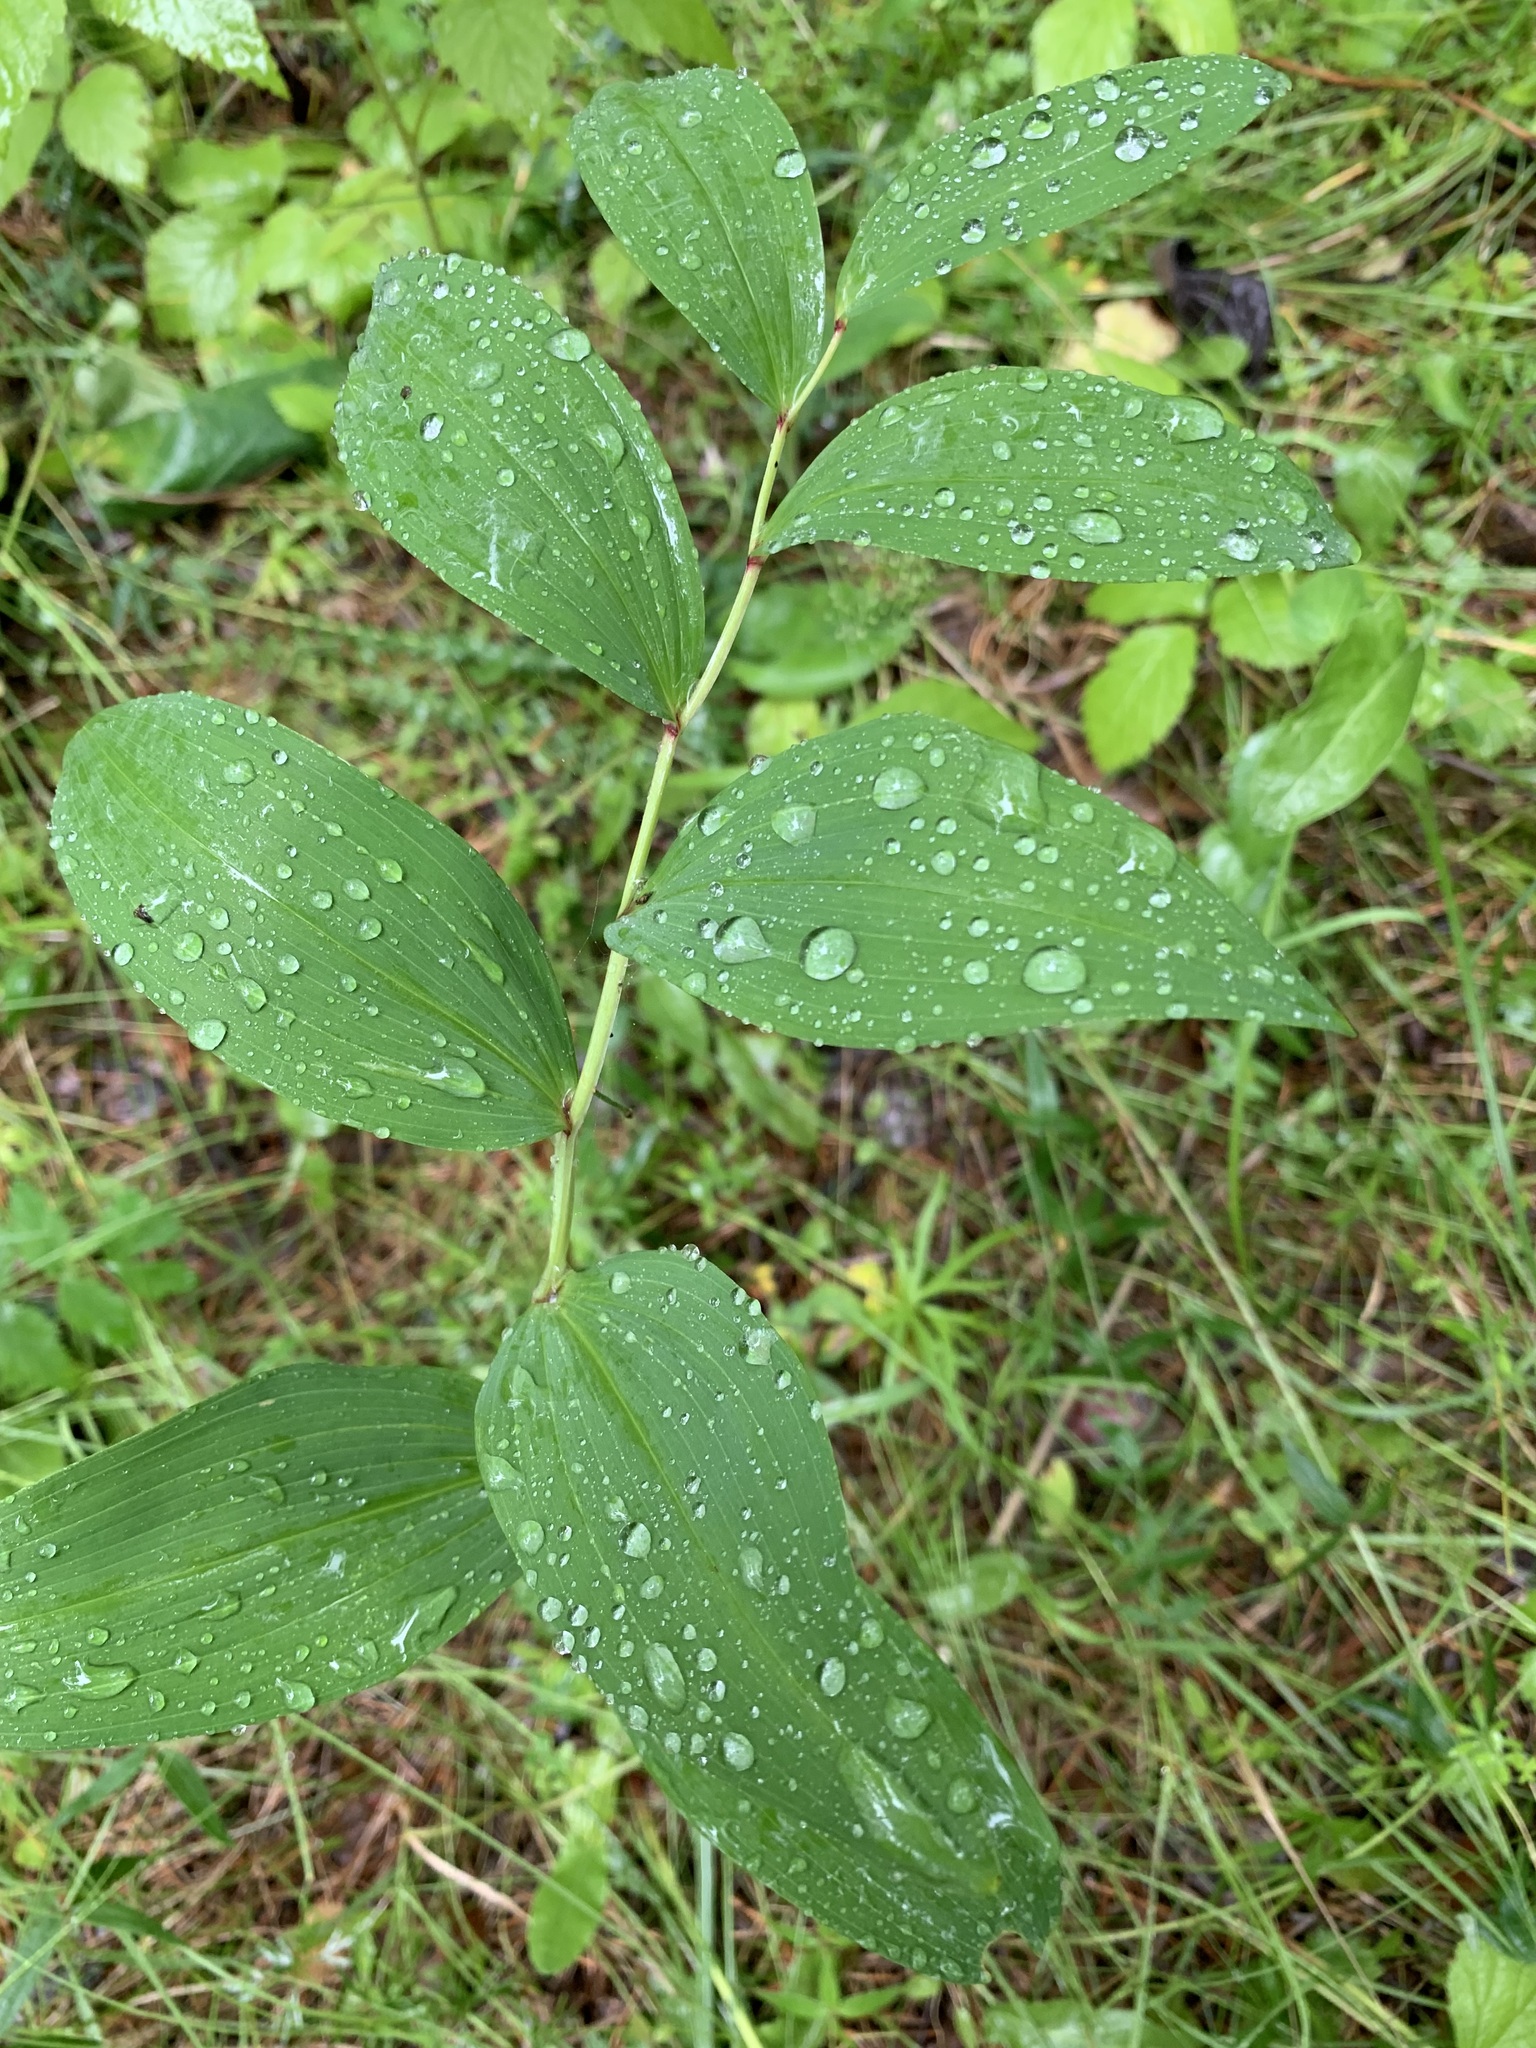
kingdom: Plantae
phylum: Tracheophyta
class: Liliopsida
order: Asparagales
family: Asparagaceae
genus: Polygonatum
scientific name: Polygonatum odoratum
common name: Angular solomon's-seal
